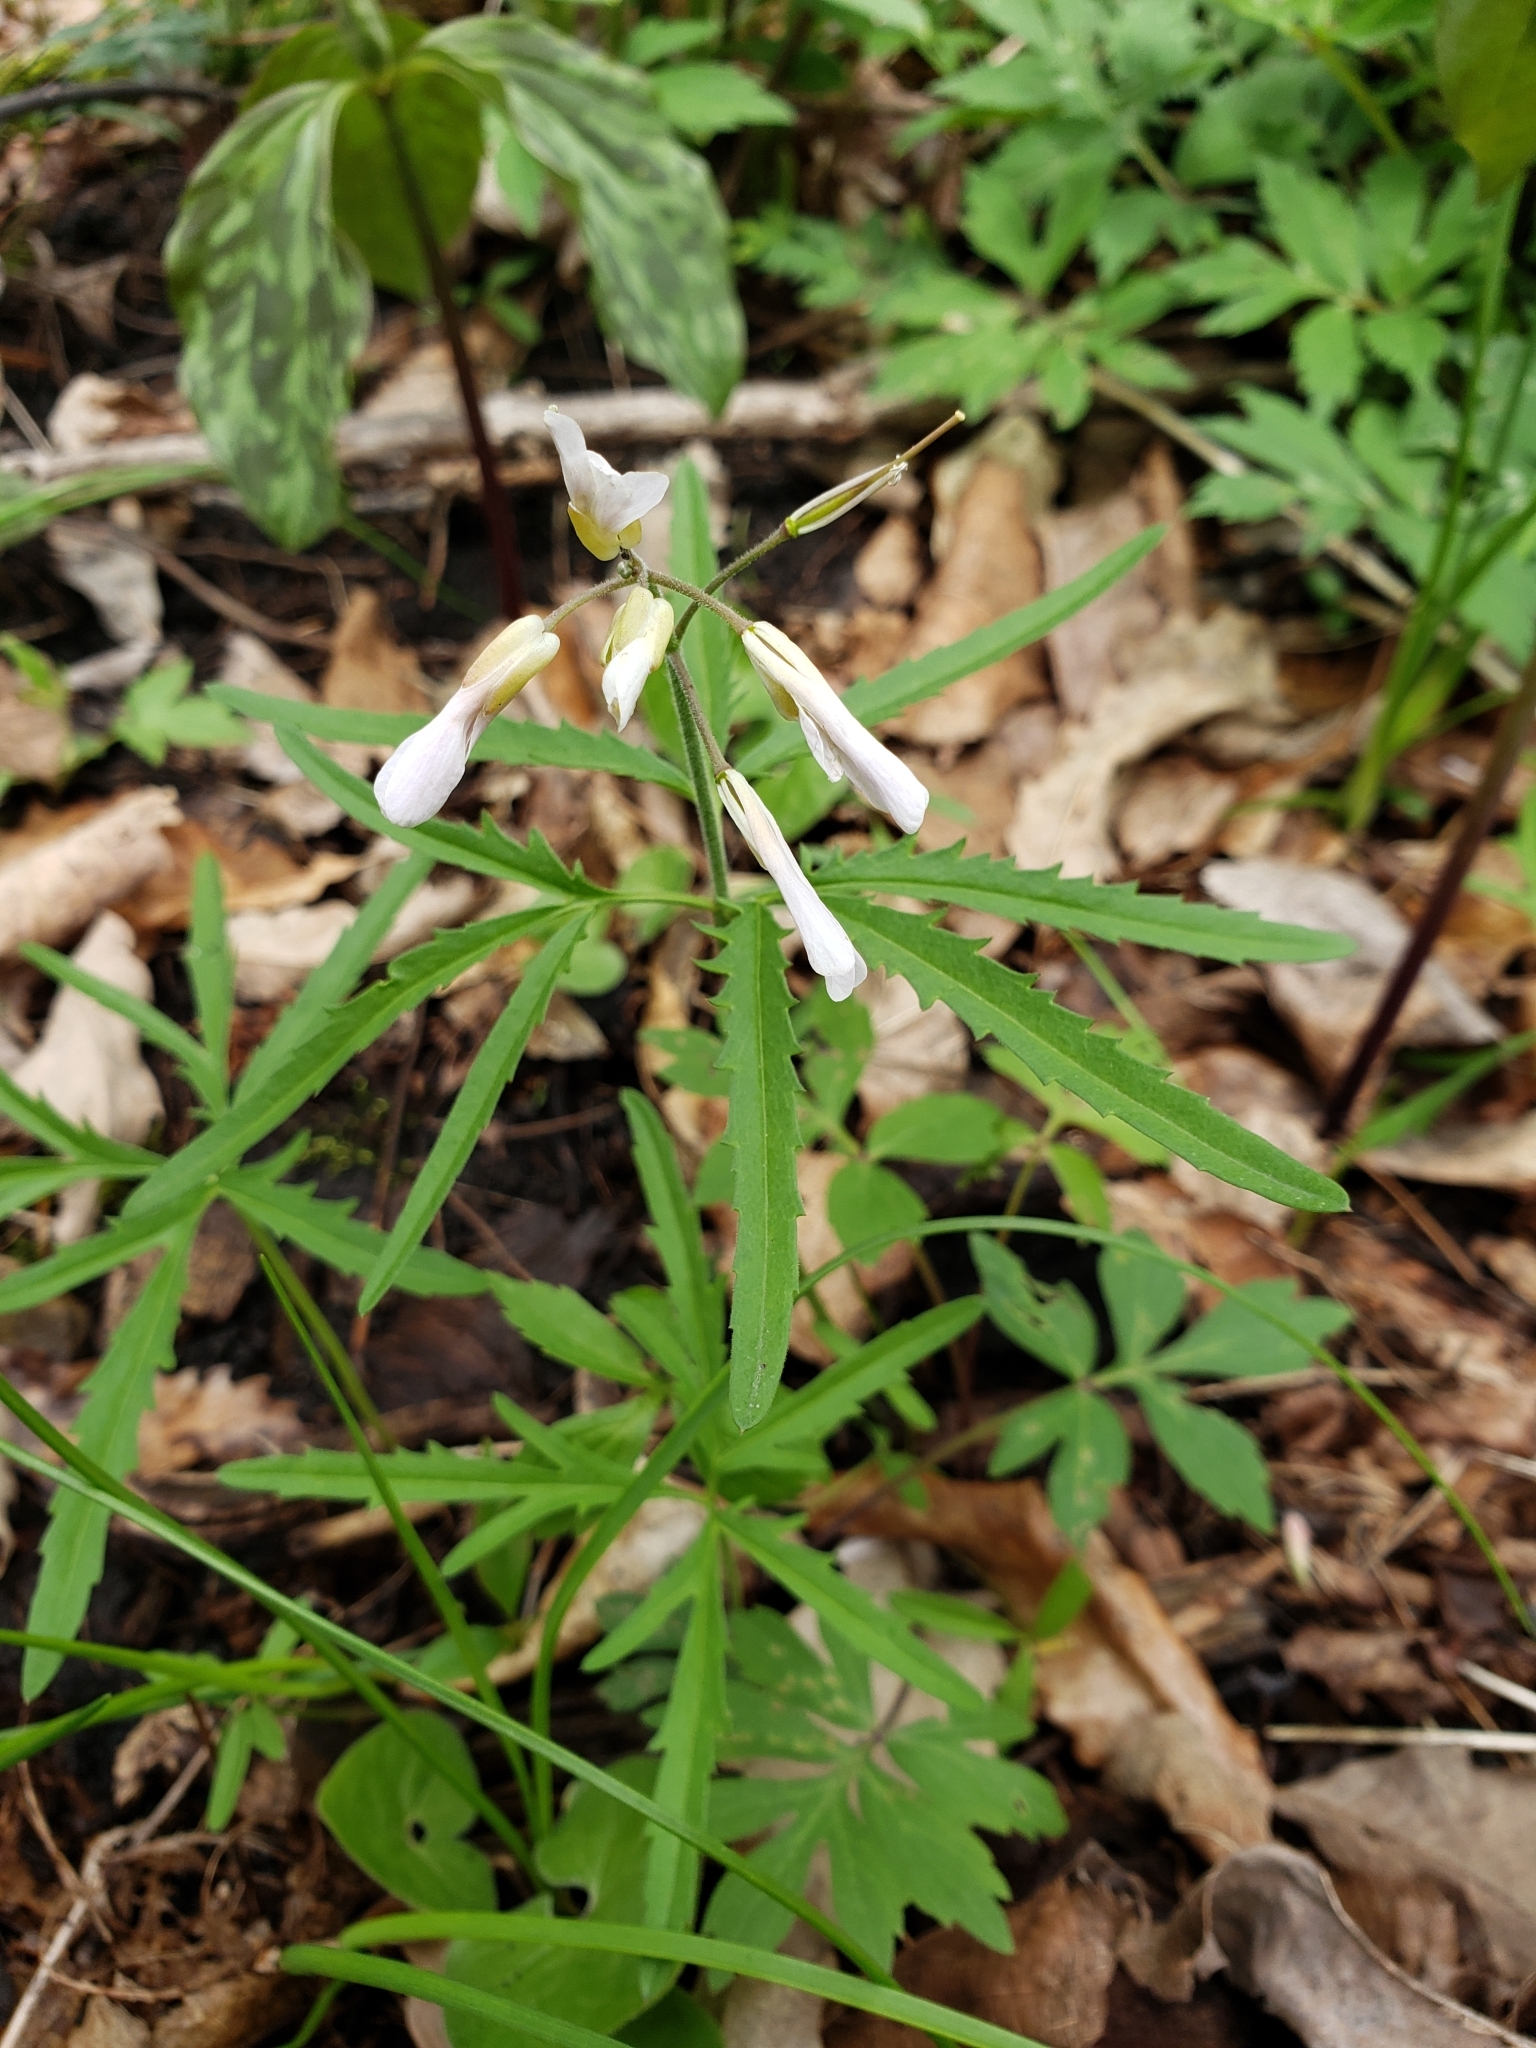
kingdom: Plantae
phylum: Tracheophyta
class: Magnoliopsida
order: Brassicales
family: Brassicaceae
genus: Cardamine
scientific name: Cardamine concatenata
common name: Cut-leaf toothcup
